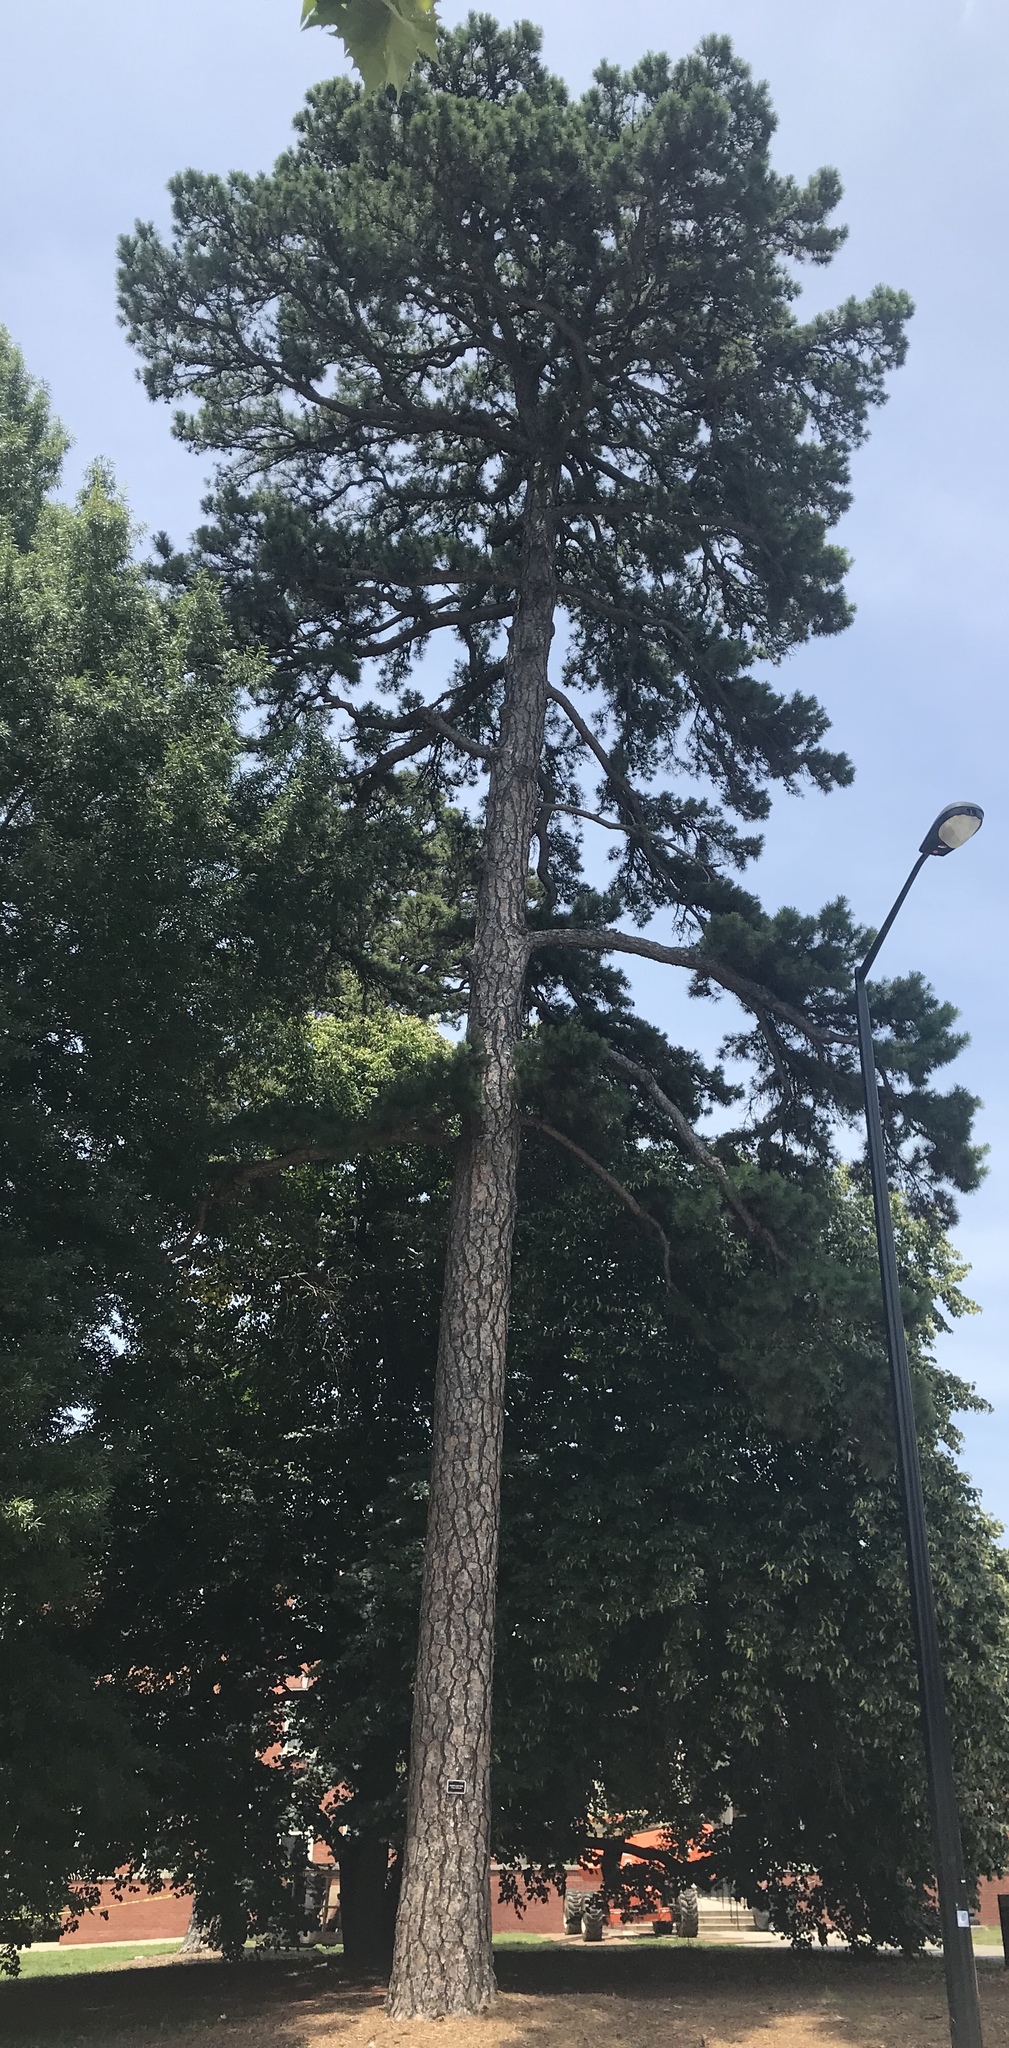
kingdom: Plantae
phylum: Tracheophyta
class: Pinopsida
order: Pinales
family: Pinaceae
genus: Pinus
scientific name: Pinus echinata
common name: Shortleaf pine
